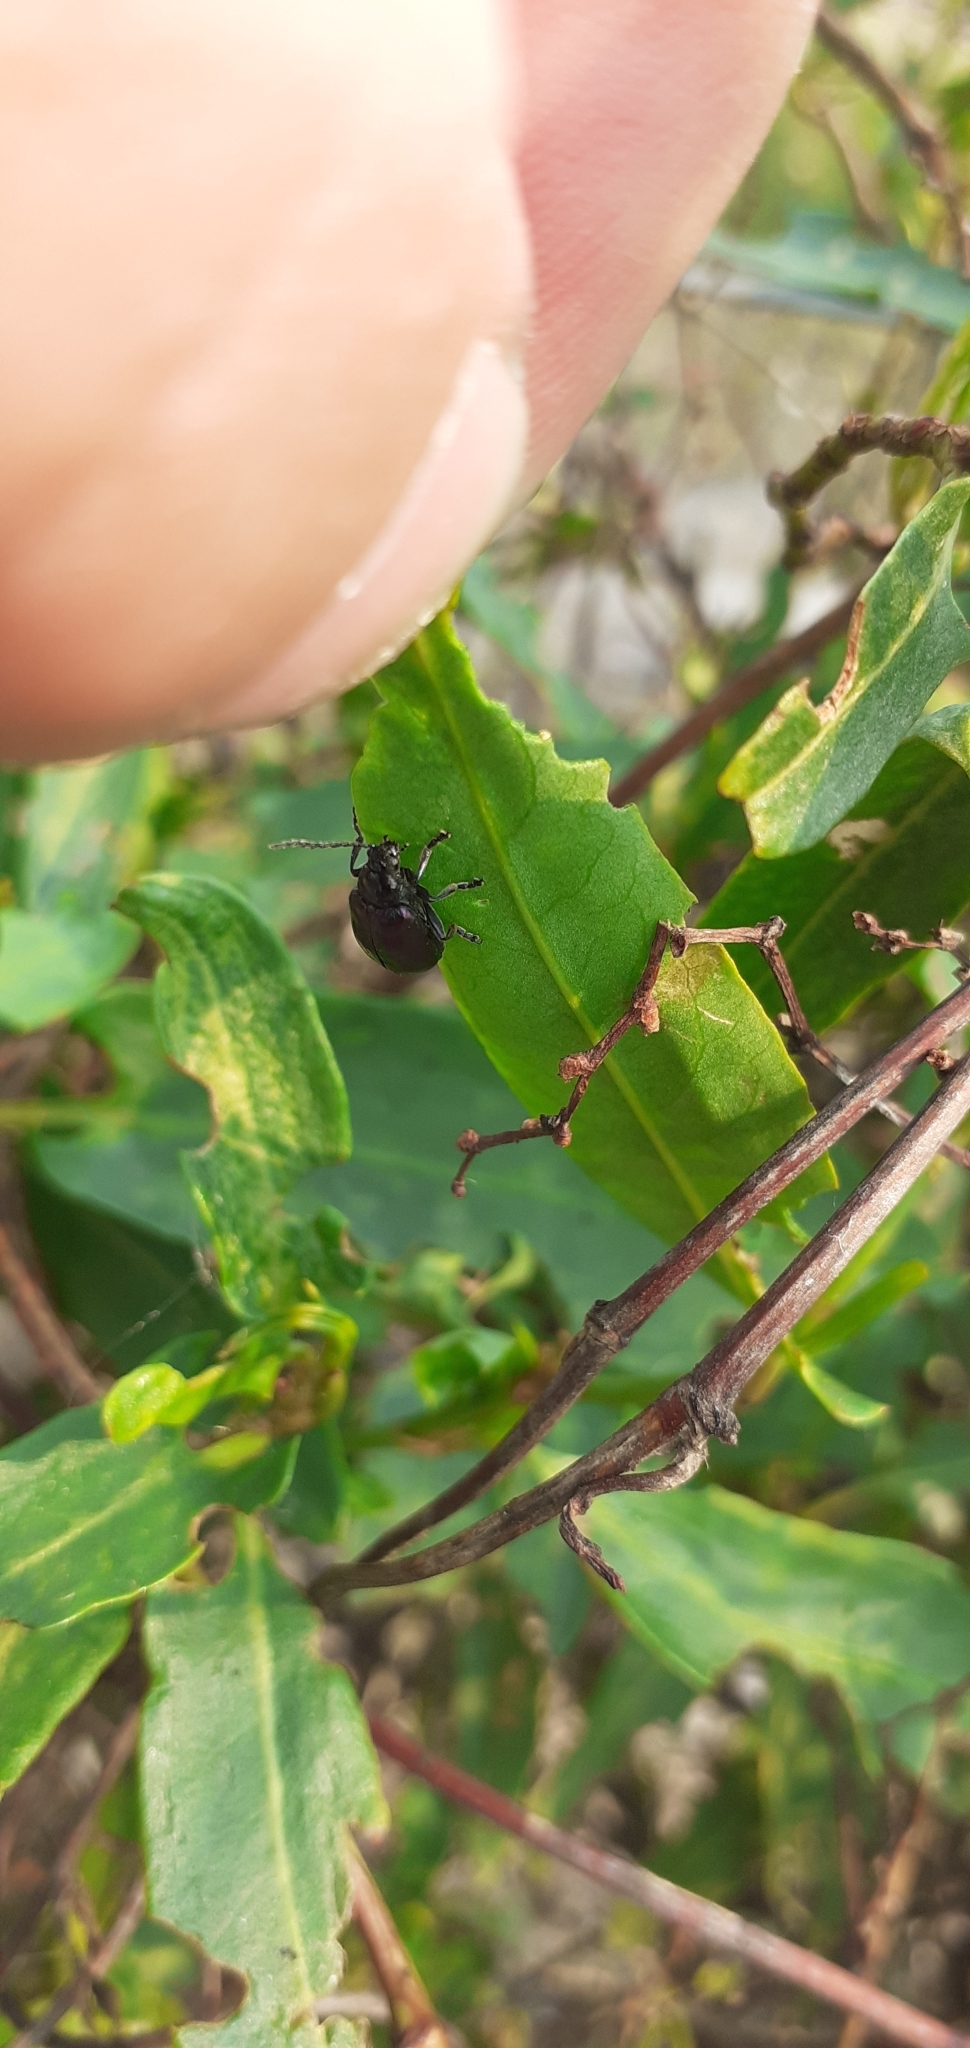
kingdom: Animalia
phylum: Arthropoda
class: Insecta
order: Coleoptera
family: Chrysomelidae
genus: Macrohaltica
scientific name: Macrohaltica
